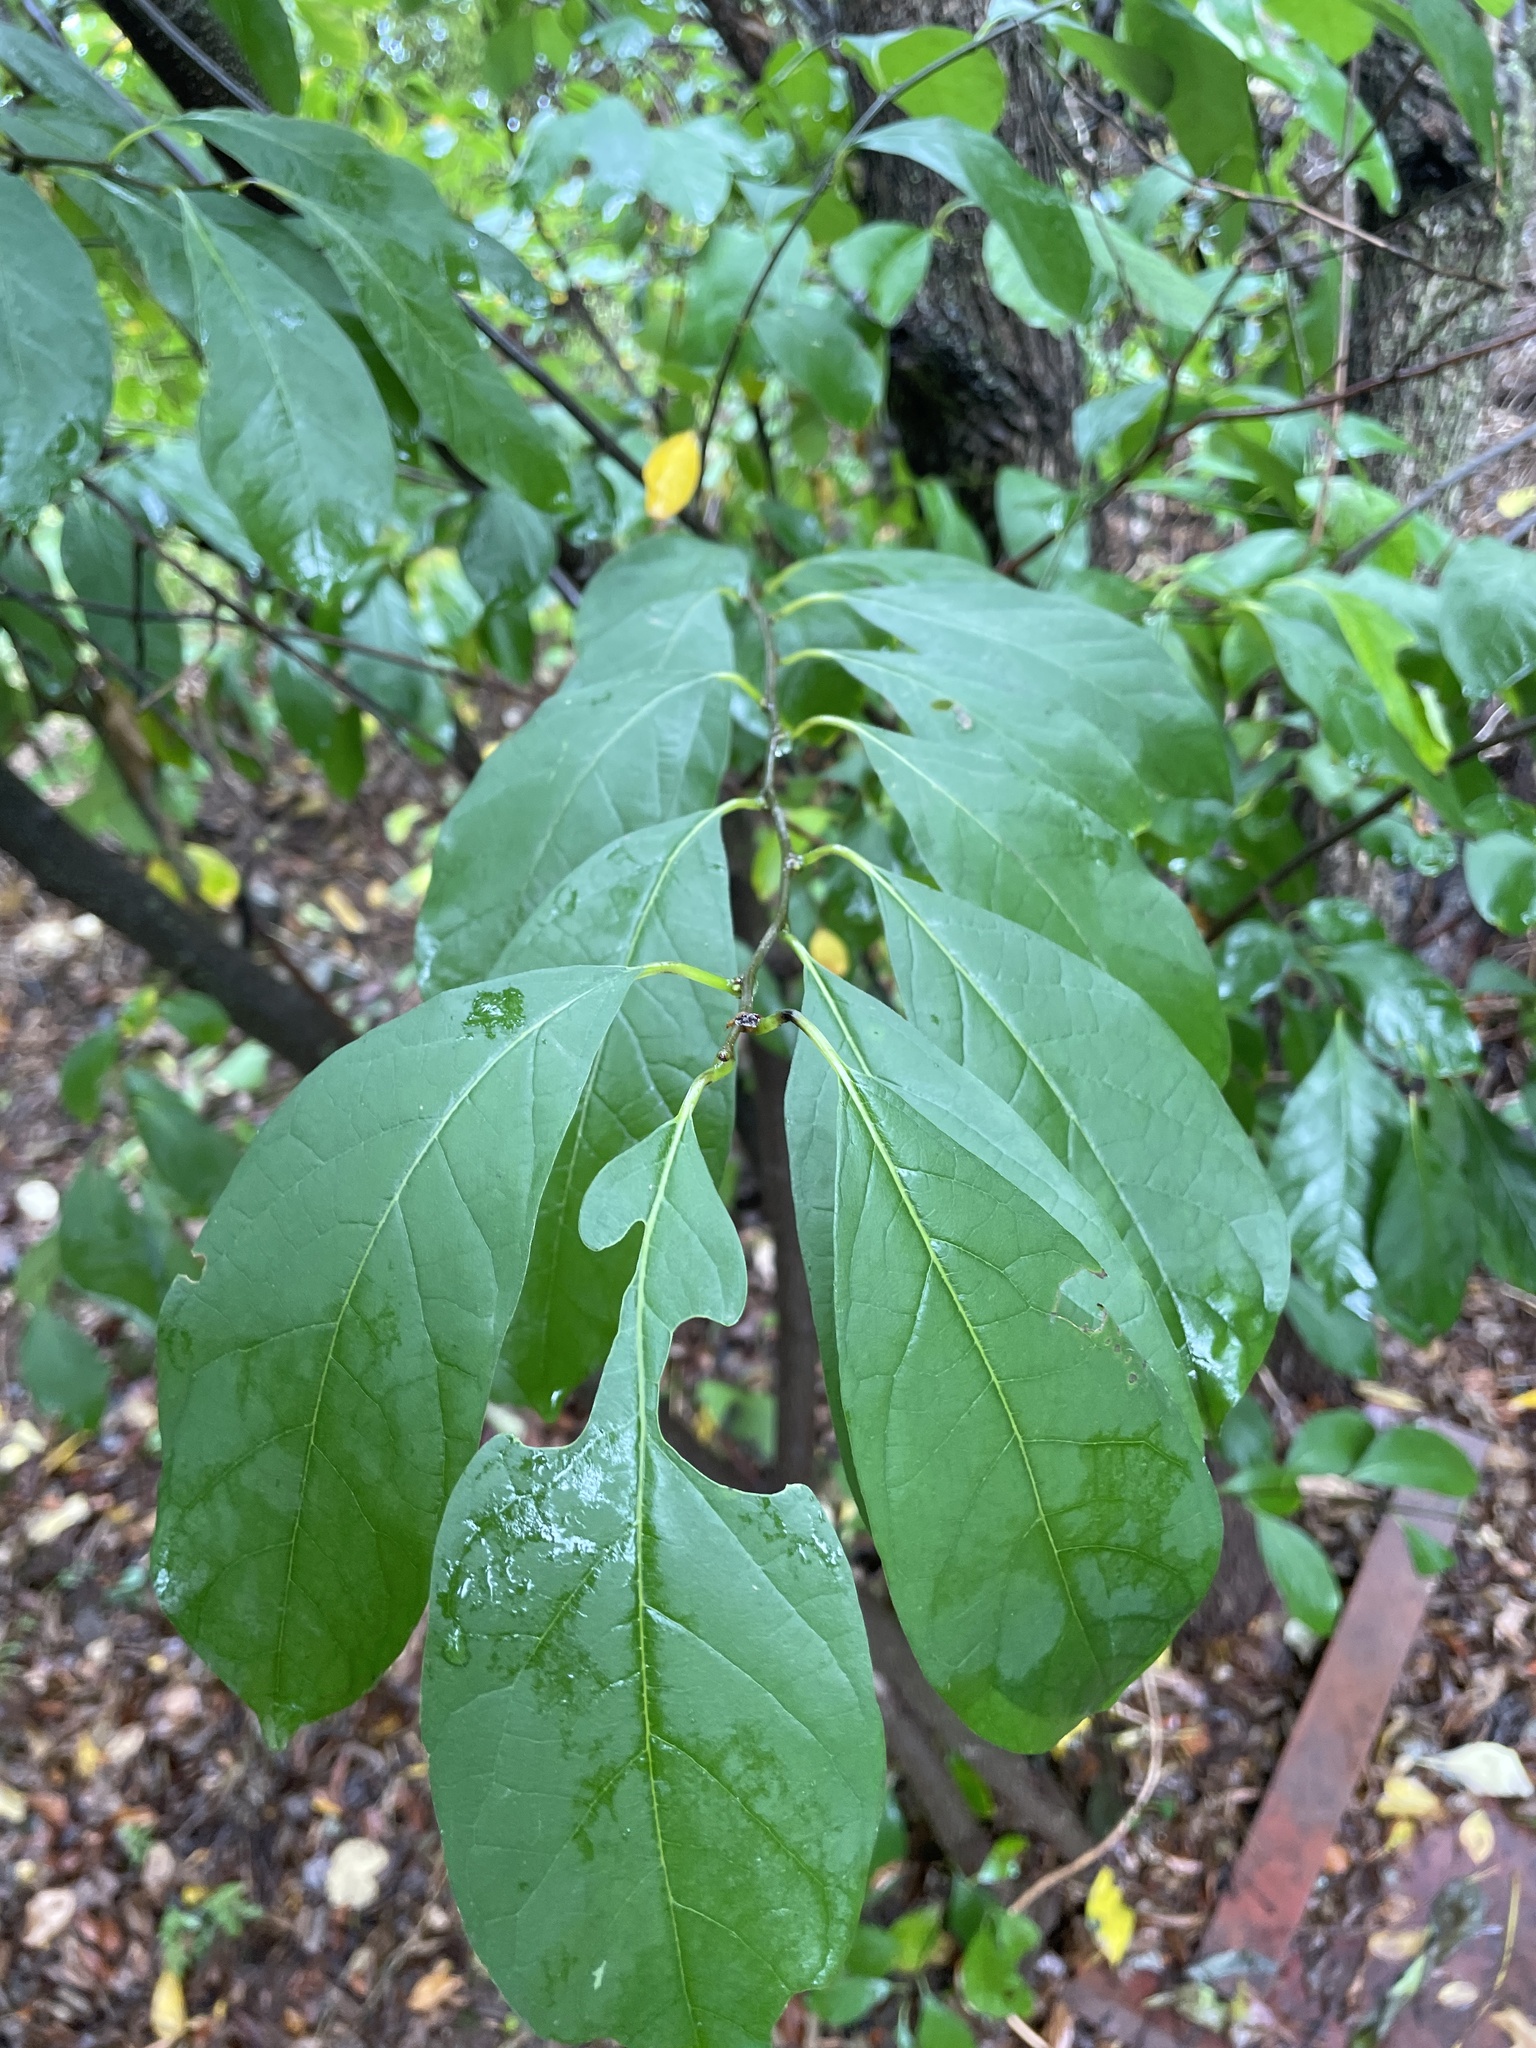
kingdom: Plantae
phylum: Tracheophyta
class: Magnoliopsida
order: Laurales
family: Lauraceae
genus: Lindera
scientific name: Lindera benzoin
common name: Spicebush
